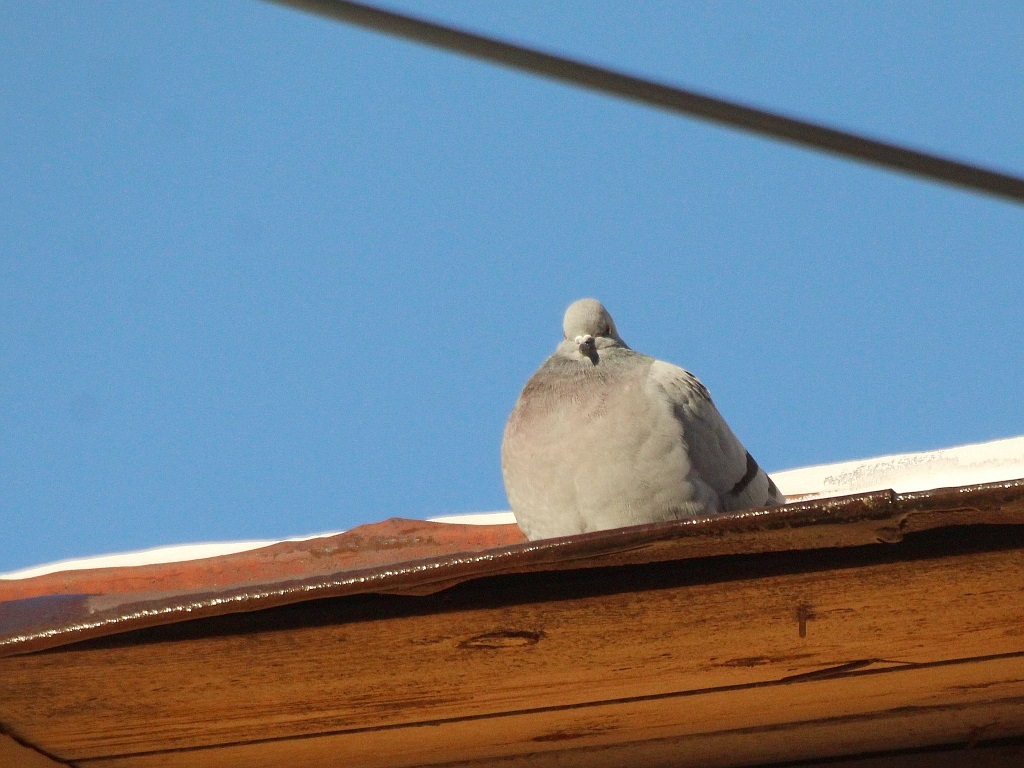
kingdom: Animalia
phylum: Chordata
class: Aves
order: Columbiformes
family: Columbidae
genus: Columba
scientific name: Columba rupestris
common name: Hill pigeon
